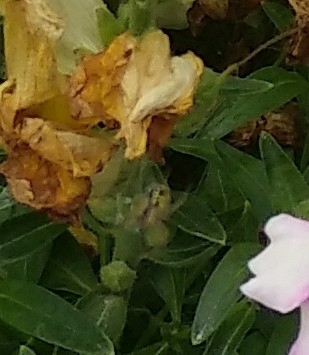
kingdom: Animalia
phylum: Arthropoda
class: Arachnida
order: Araneae
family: Araneidae
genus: Mangora
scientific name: Mangora acalypha
